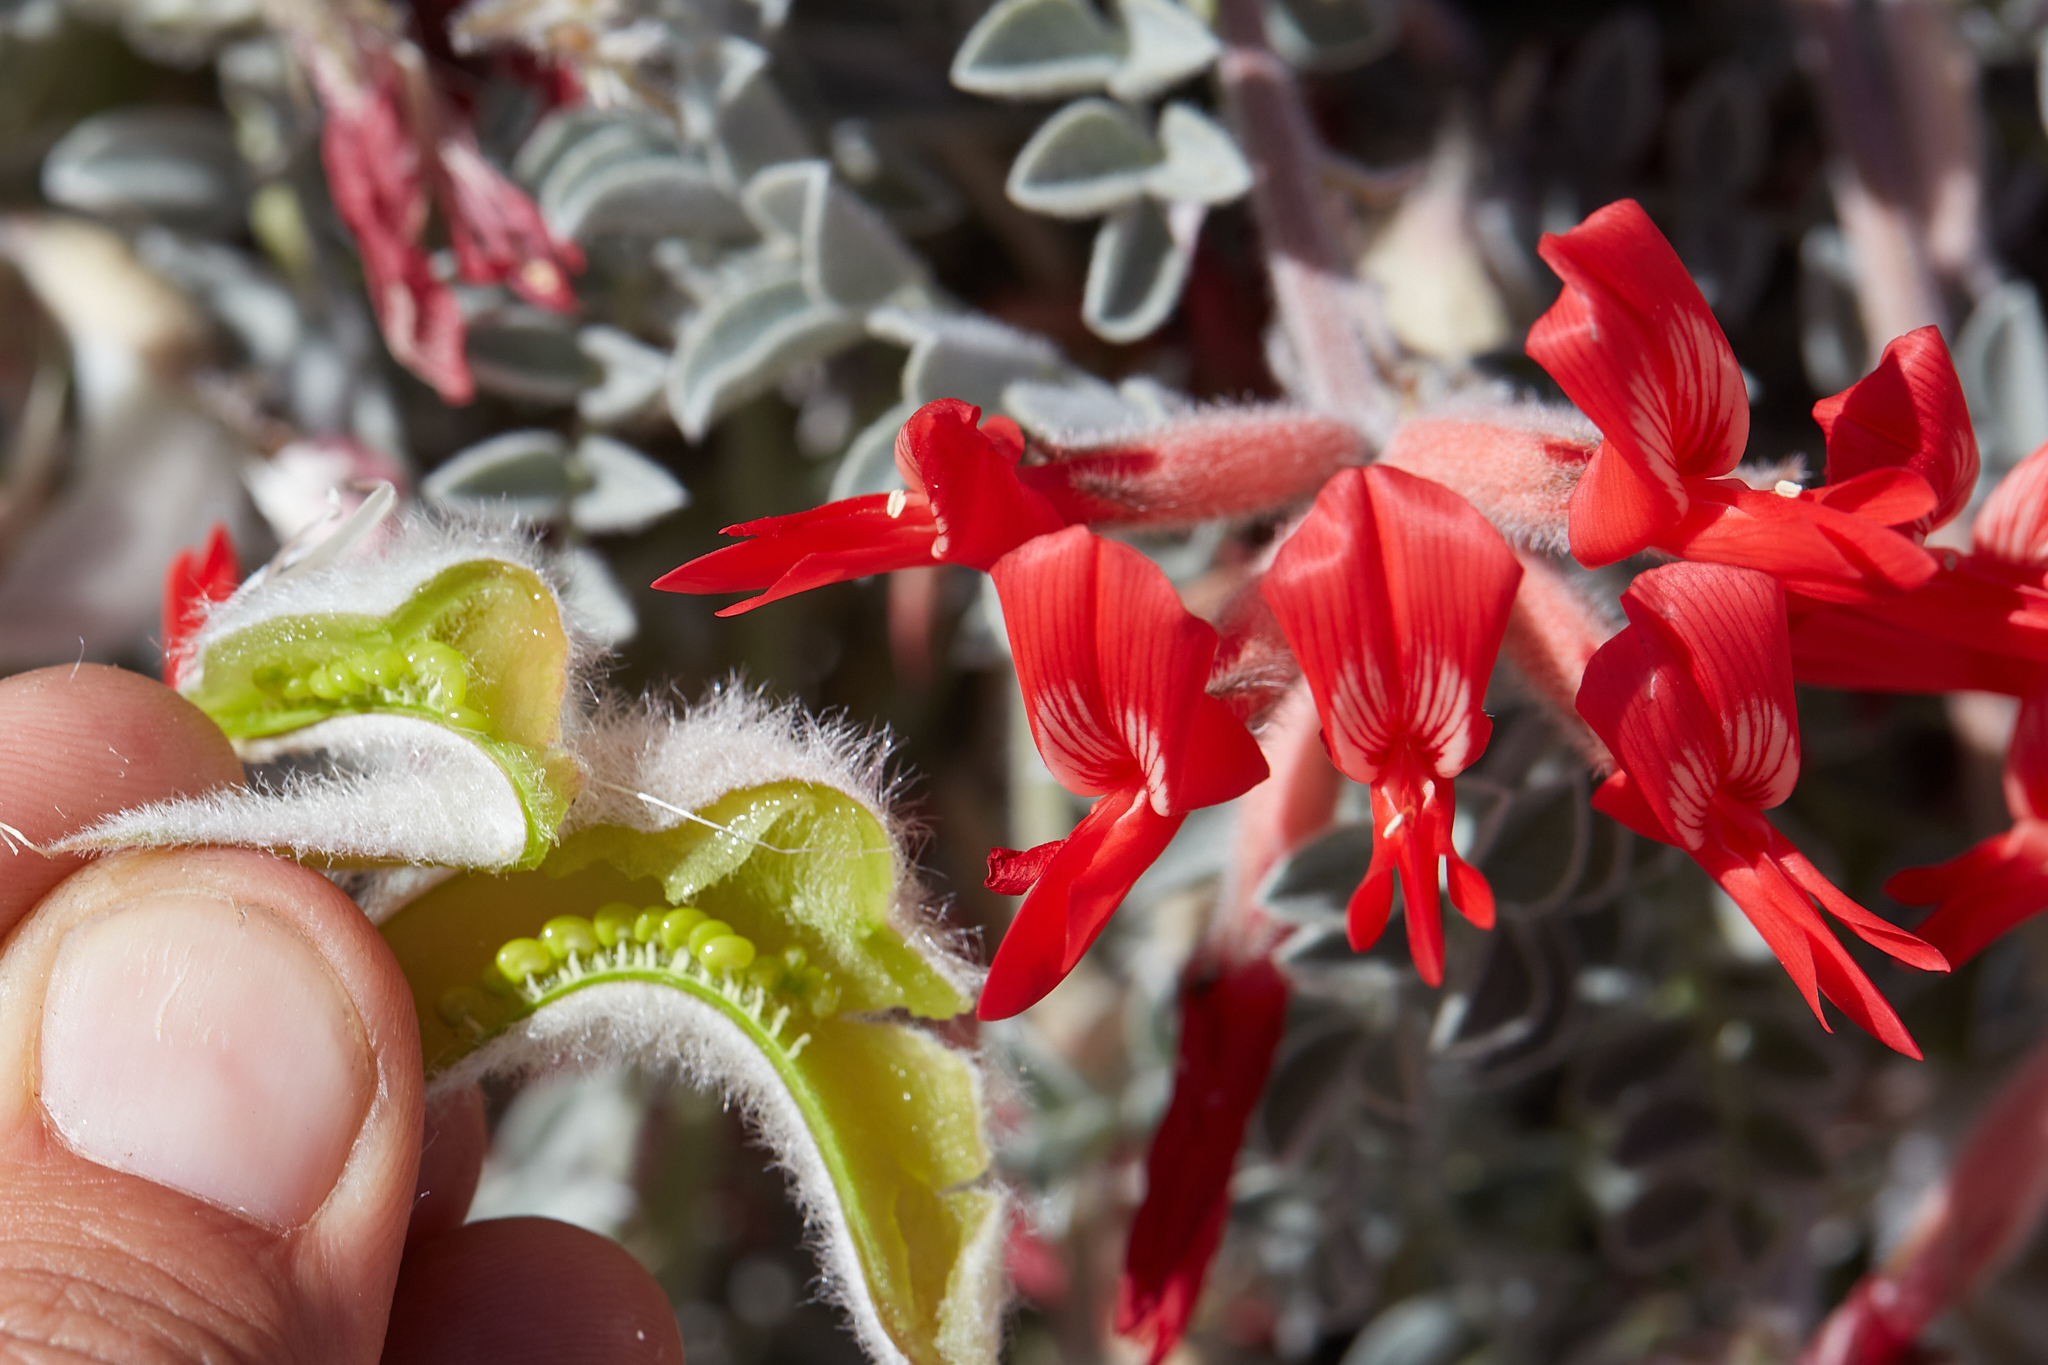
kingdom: Plantae
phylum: Tracheophyta
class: Magnoliopsida
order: Fabales
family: Fabaceae
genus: Astragalus
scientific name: Astragalus coccineus
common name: Scarlet milk-vetch
